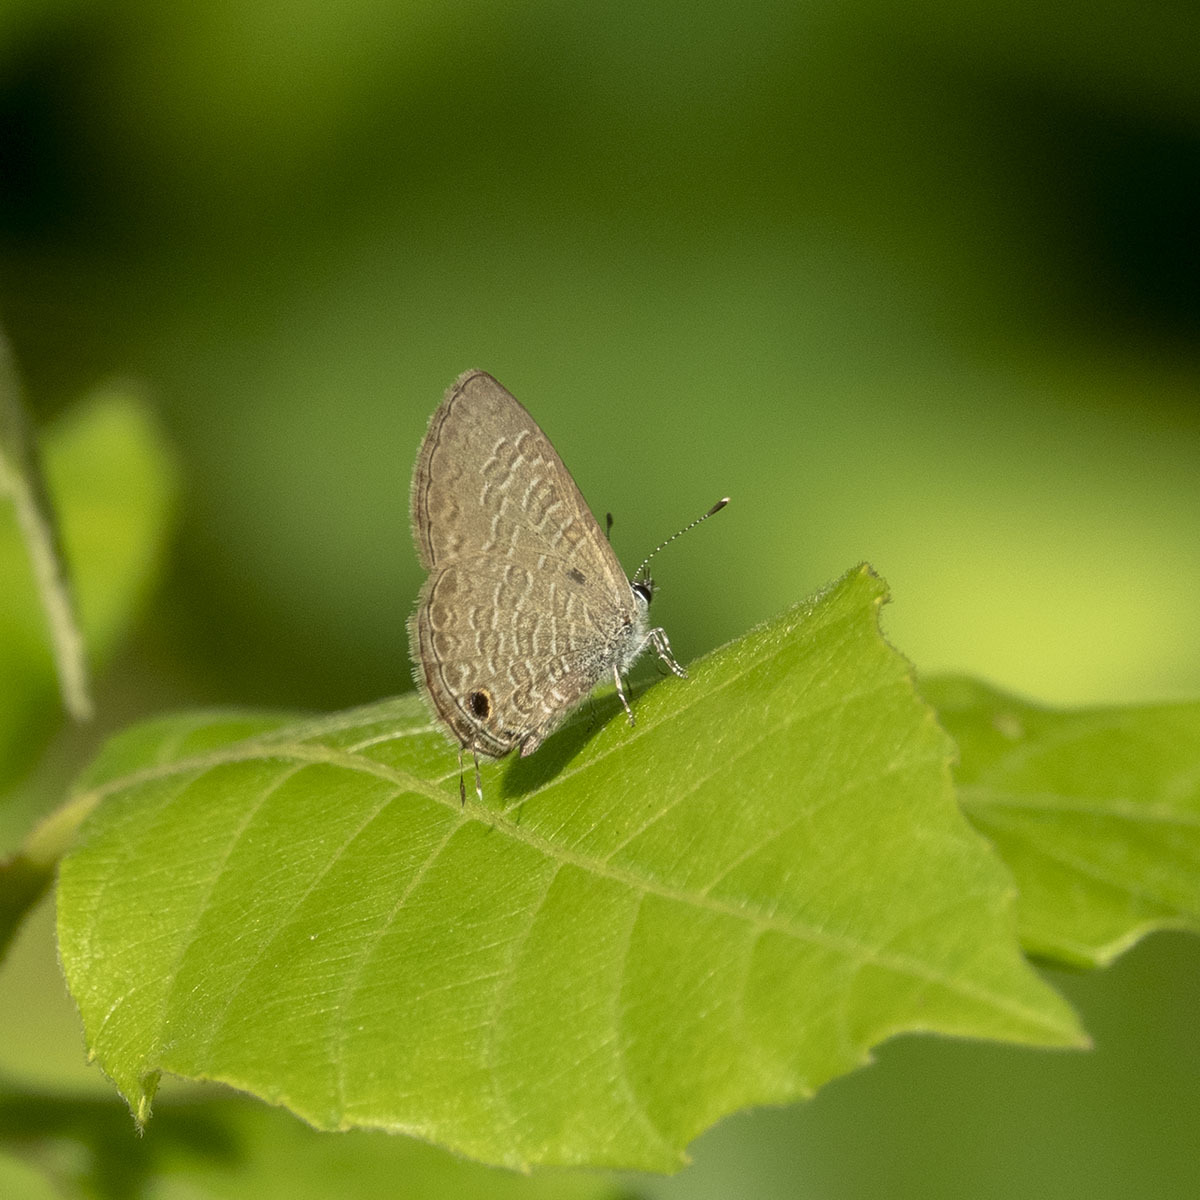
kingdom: Animalia
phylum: Arthropoda
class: Insecta
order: Lepidoptera
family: Lycaenidae
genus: Prosotas
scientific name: Prosotas nora
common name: Common line blue
